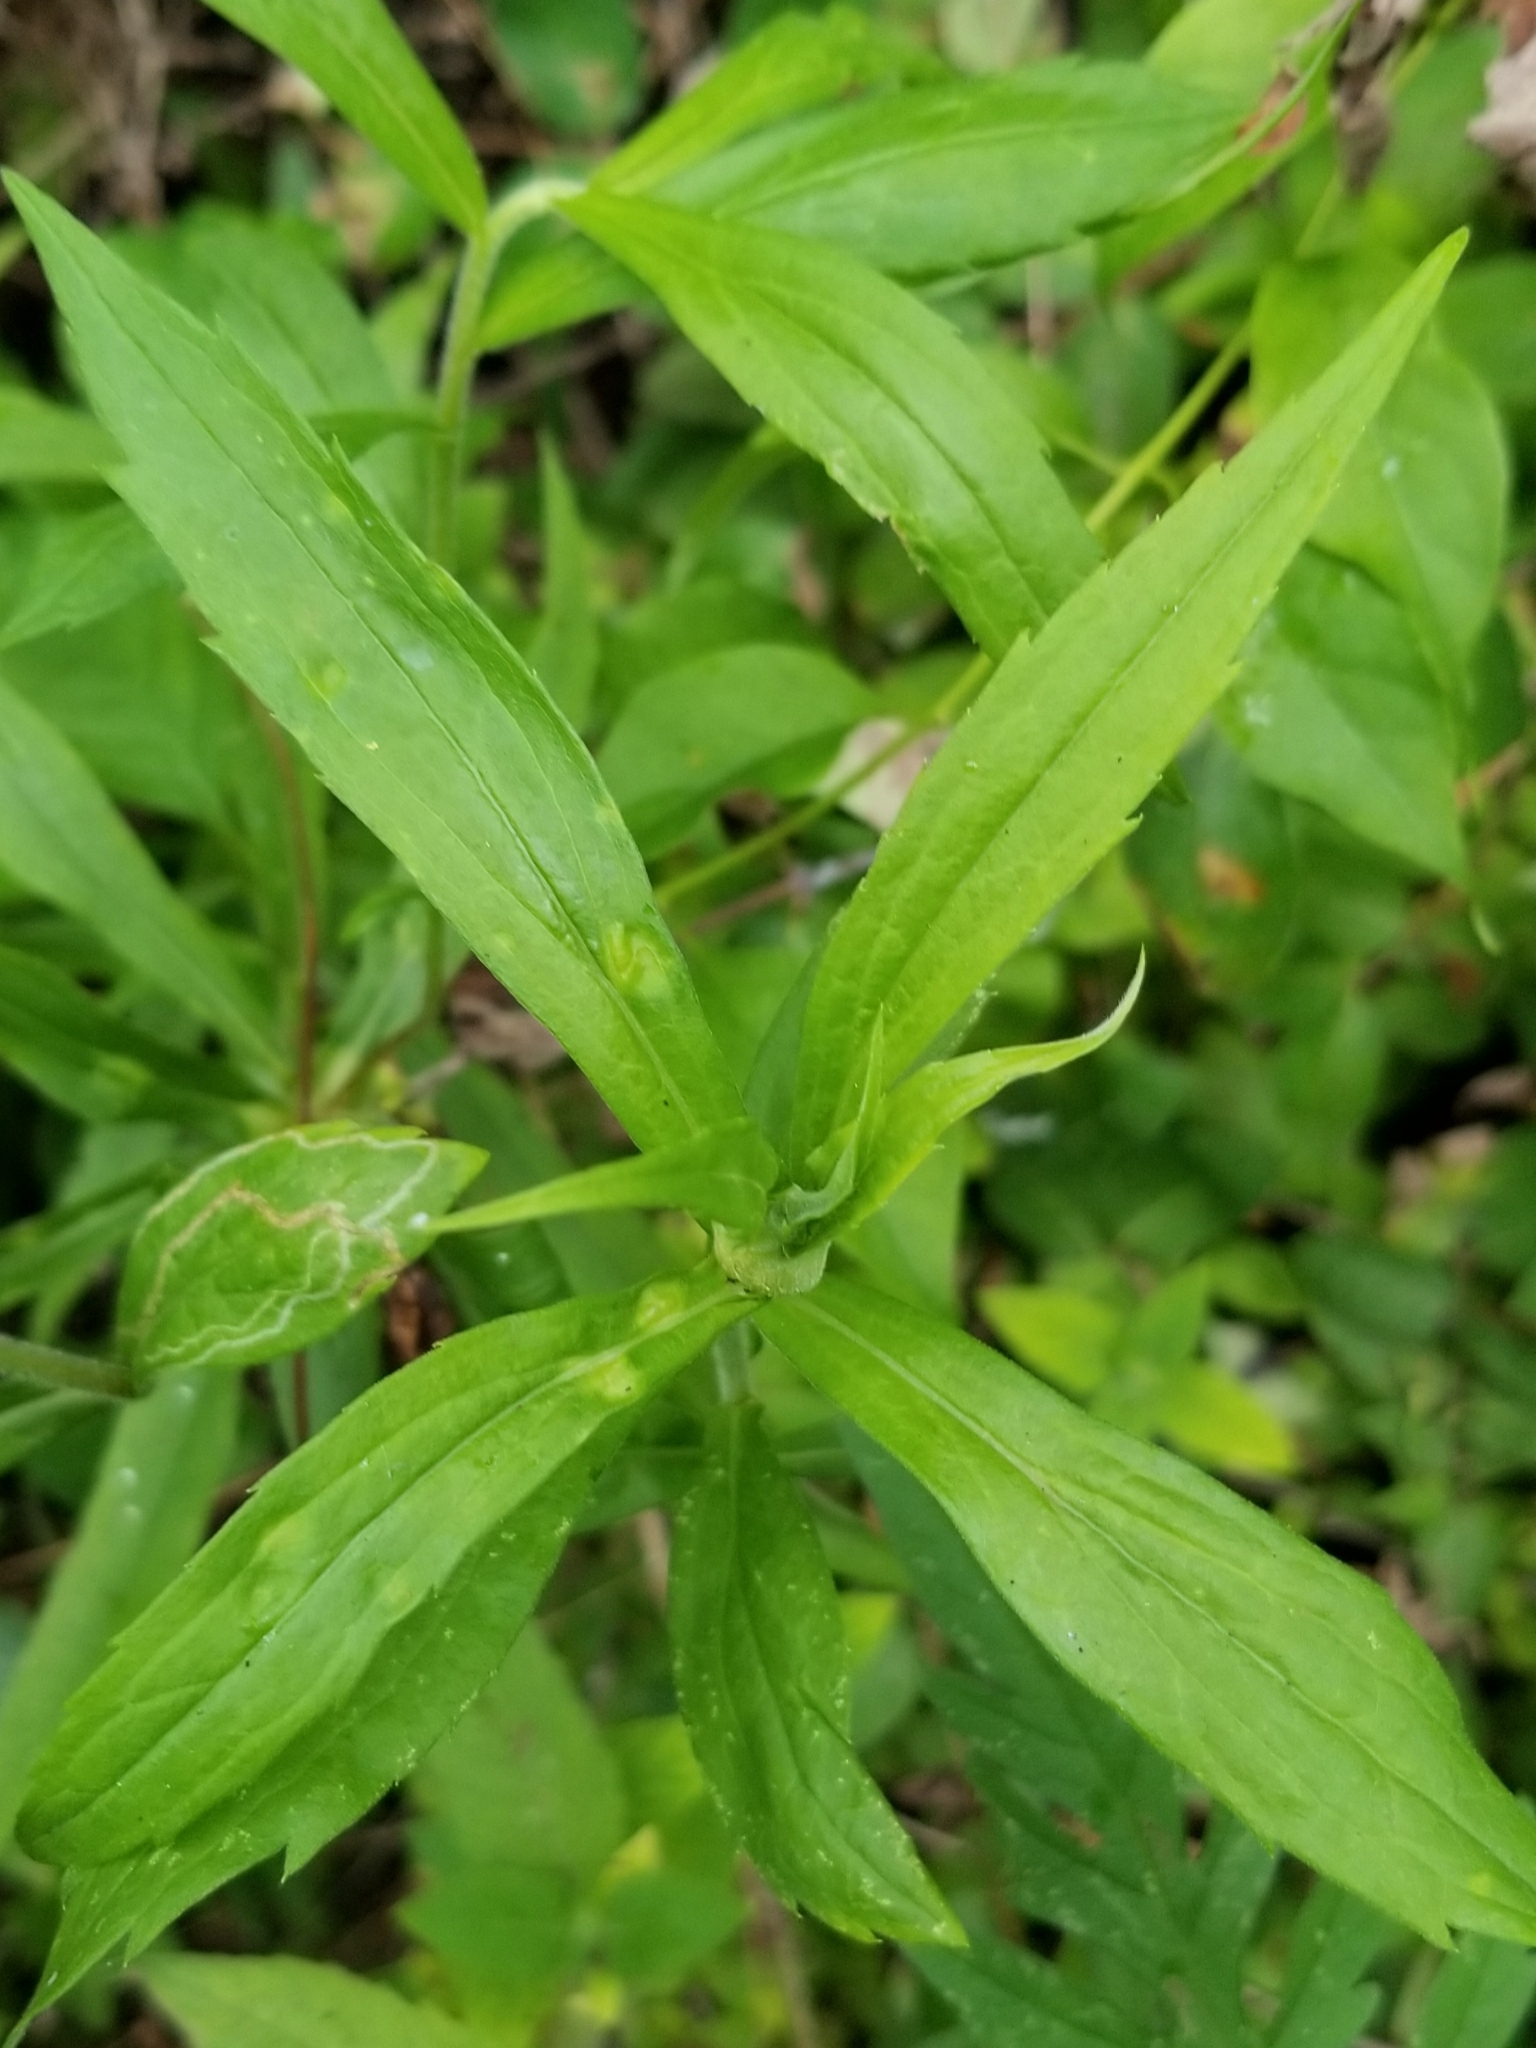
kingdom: Animalia
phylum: Arthropoda
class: Insecta
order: Diptera
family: Cecidomyiidae
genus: Dasineura
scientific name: Dasineura folliculi
